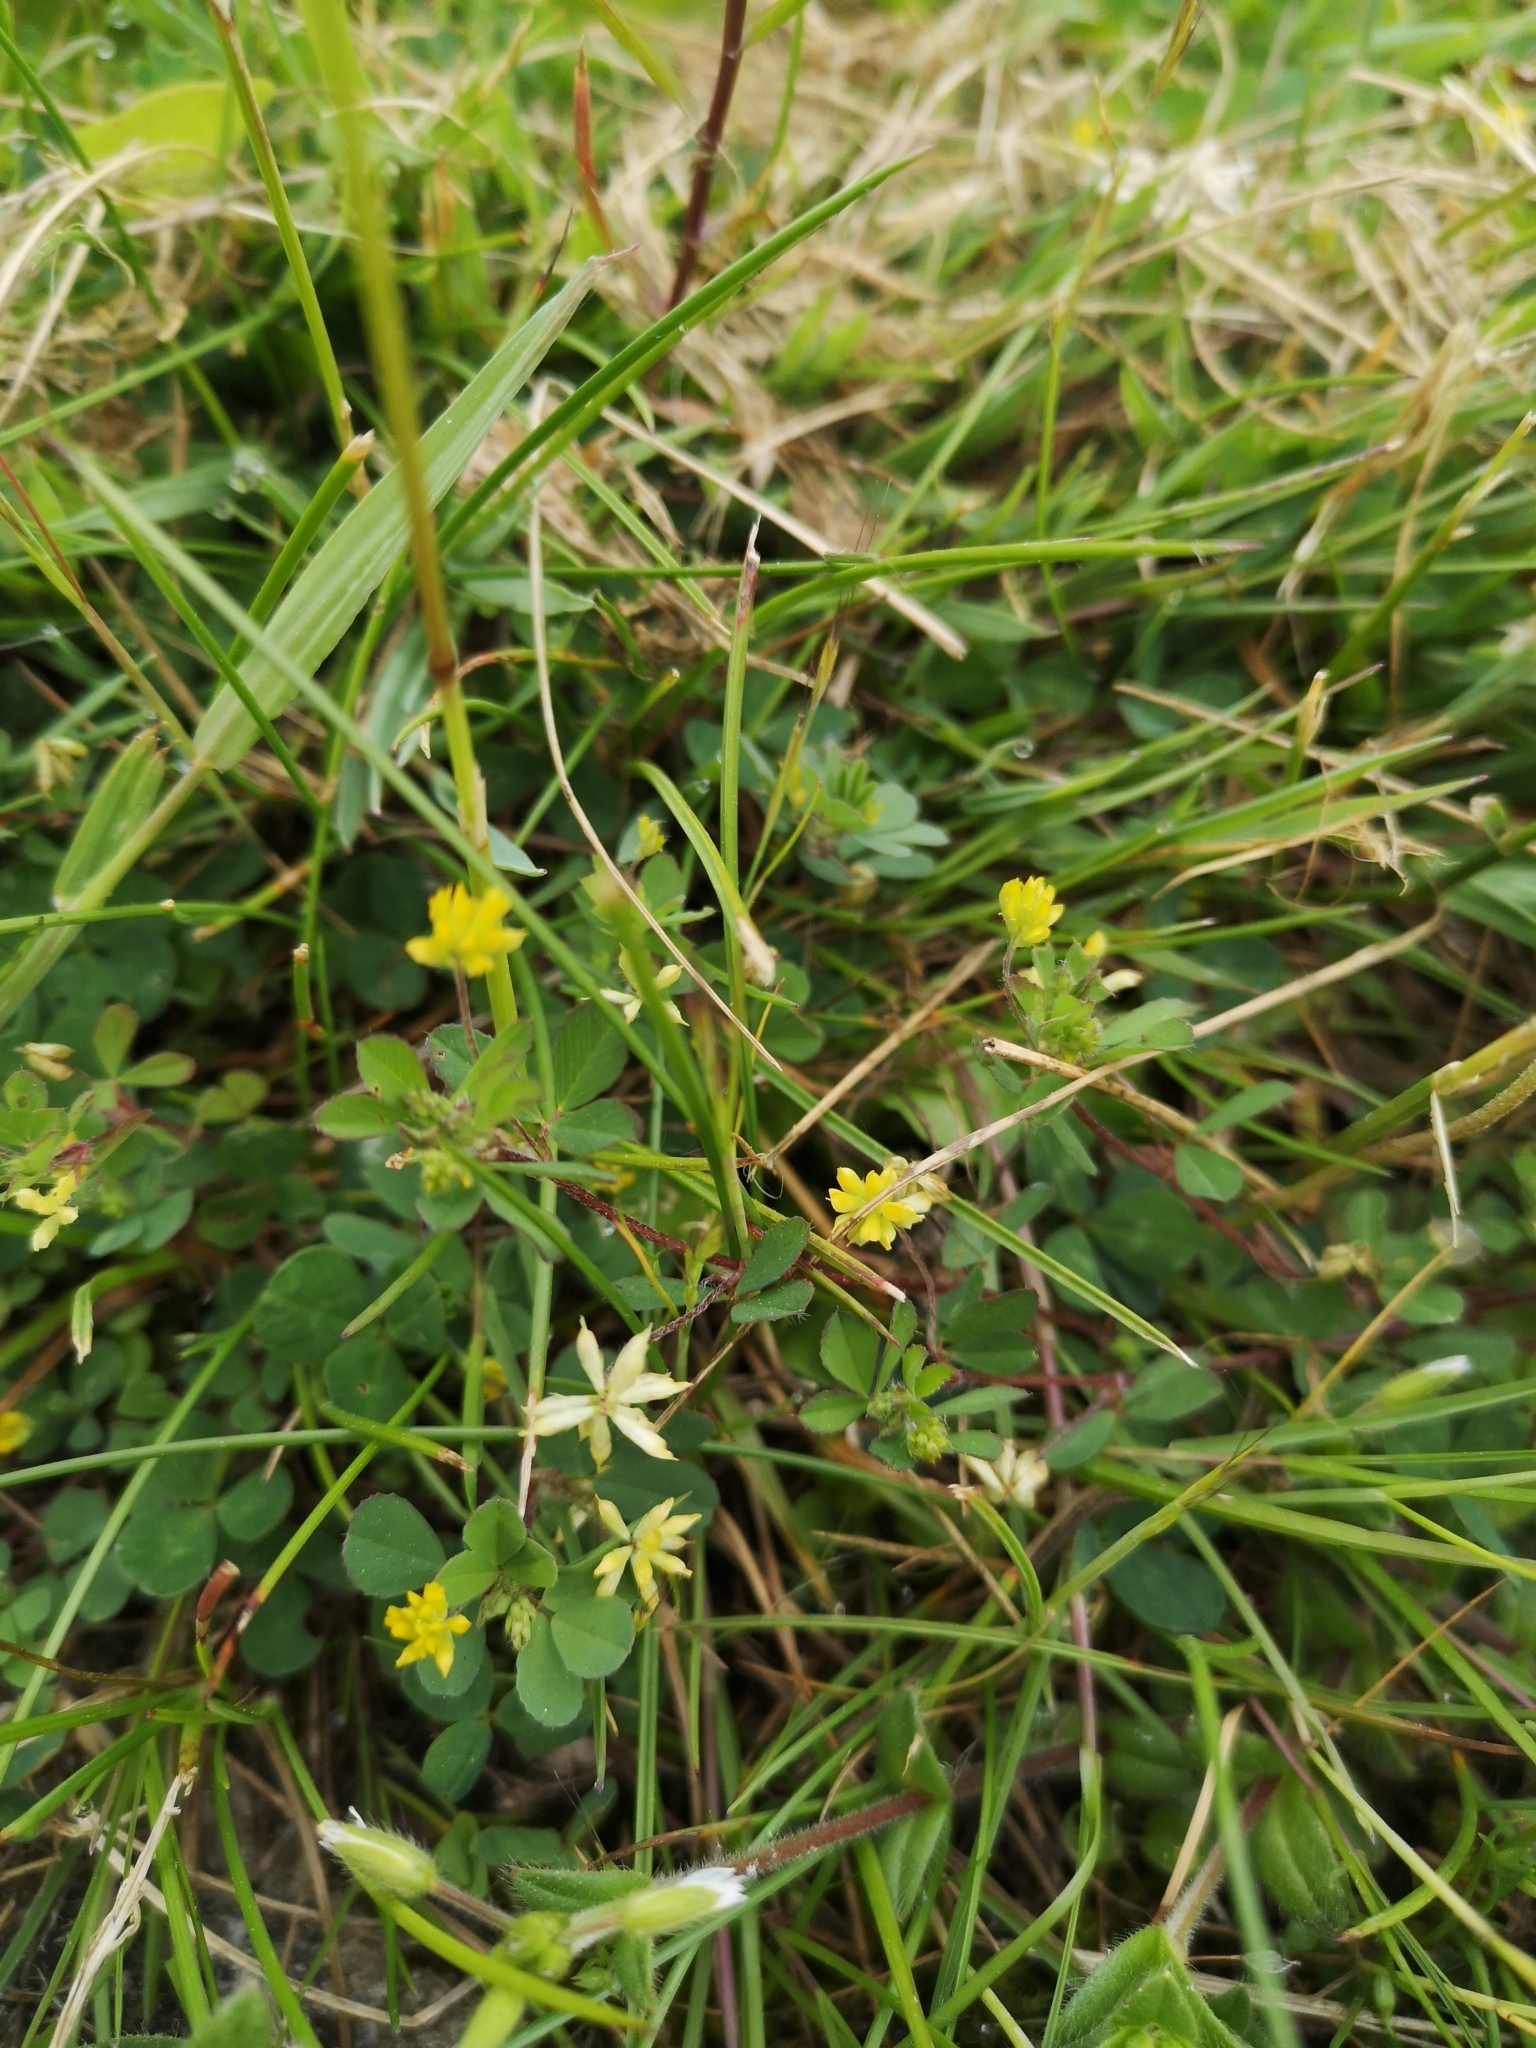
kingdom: Plantae
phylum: Tracheophyta
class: Magnoliopsida
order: Fabales
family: Fabaceae
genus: Trifolium
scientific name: Trifolium dubium
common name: Suckling clover
